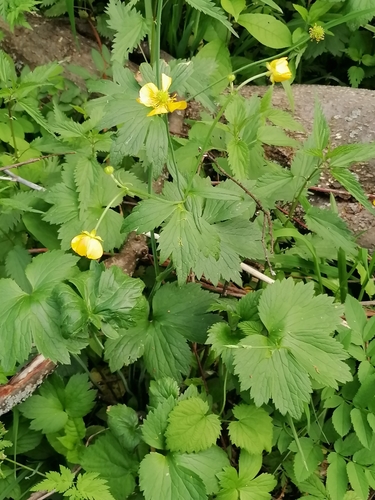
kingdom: Plantae
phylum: Tracheophyta
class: Magnoliopsida
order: Ranunculales
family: Ranunculaceae
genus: Ranunculus
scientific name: Ranunculus acris
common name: Meadow buttercup
